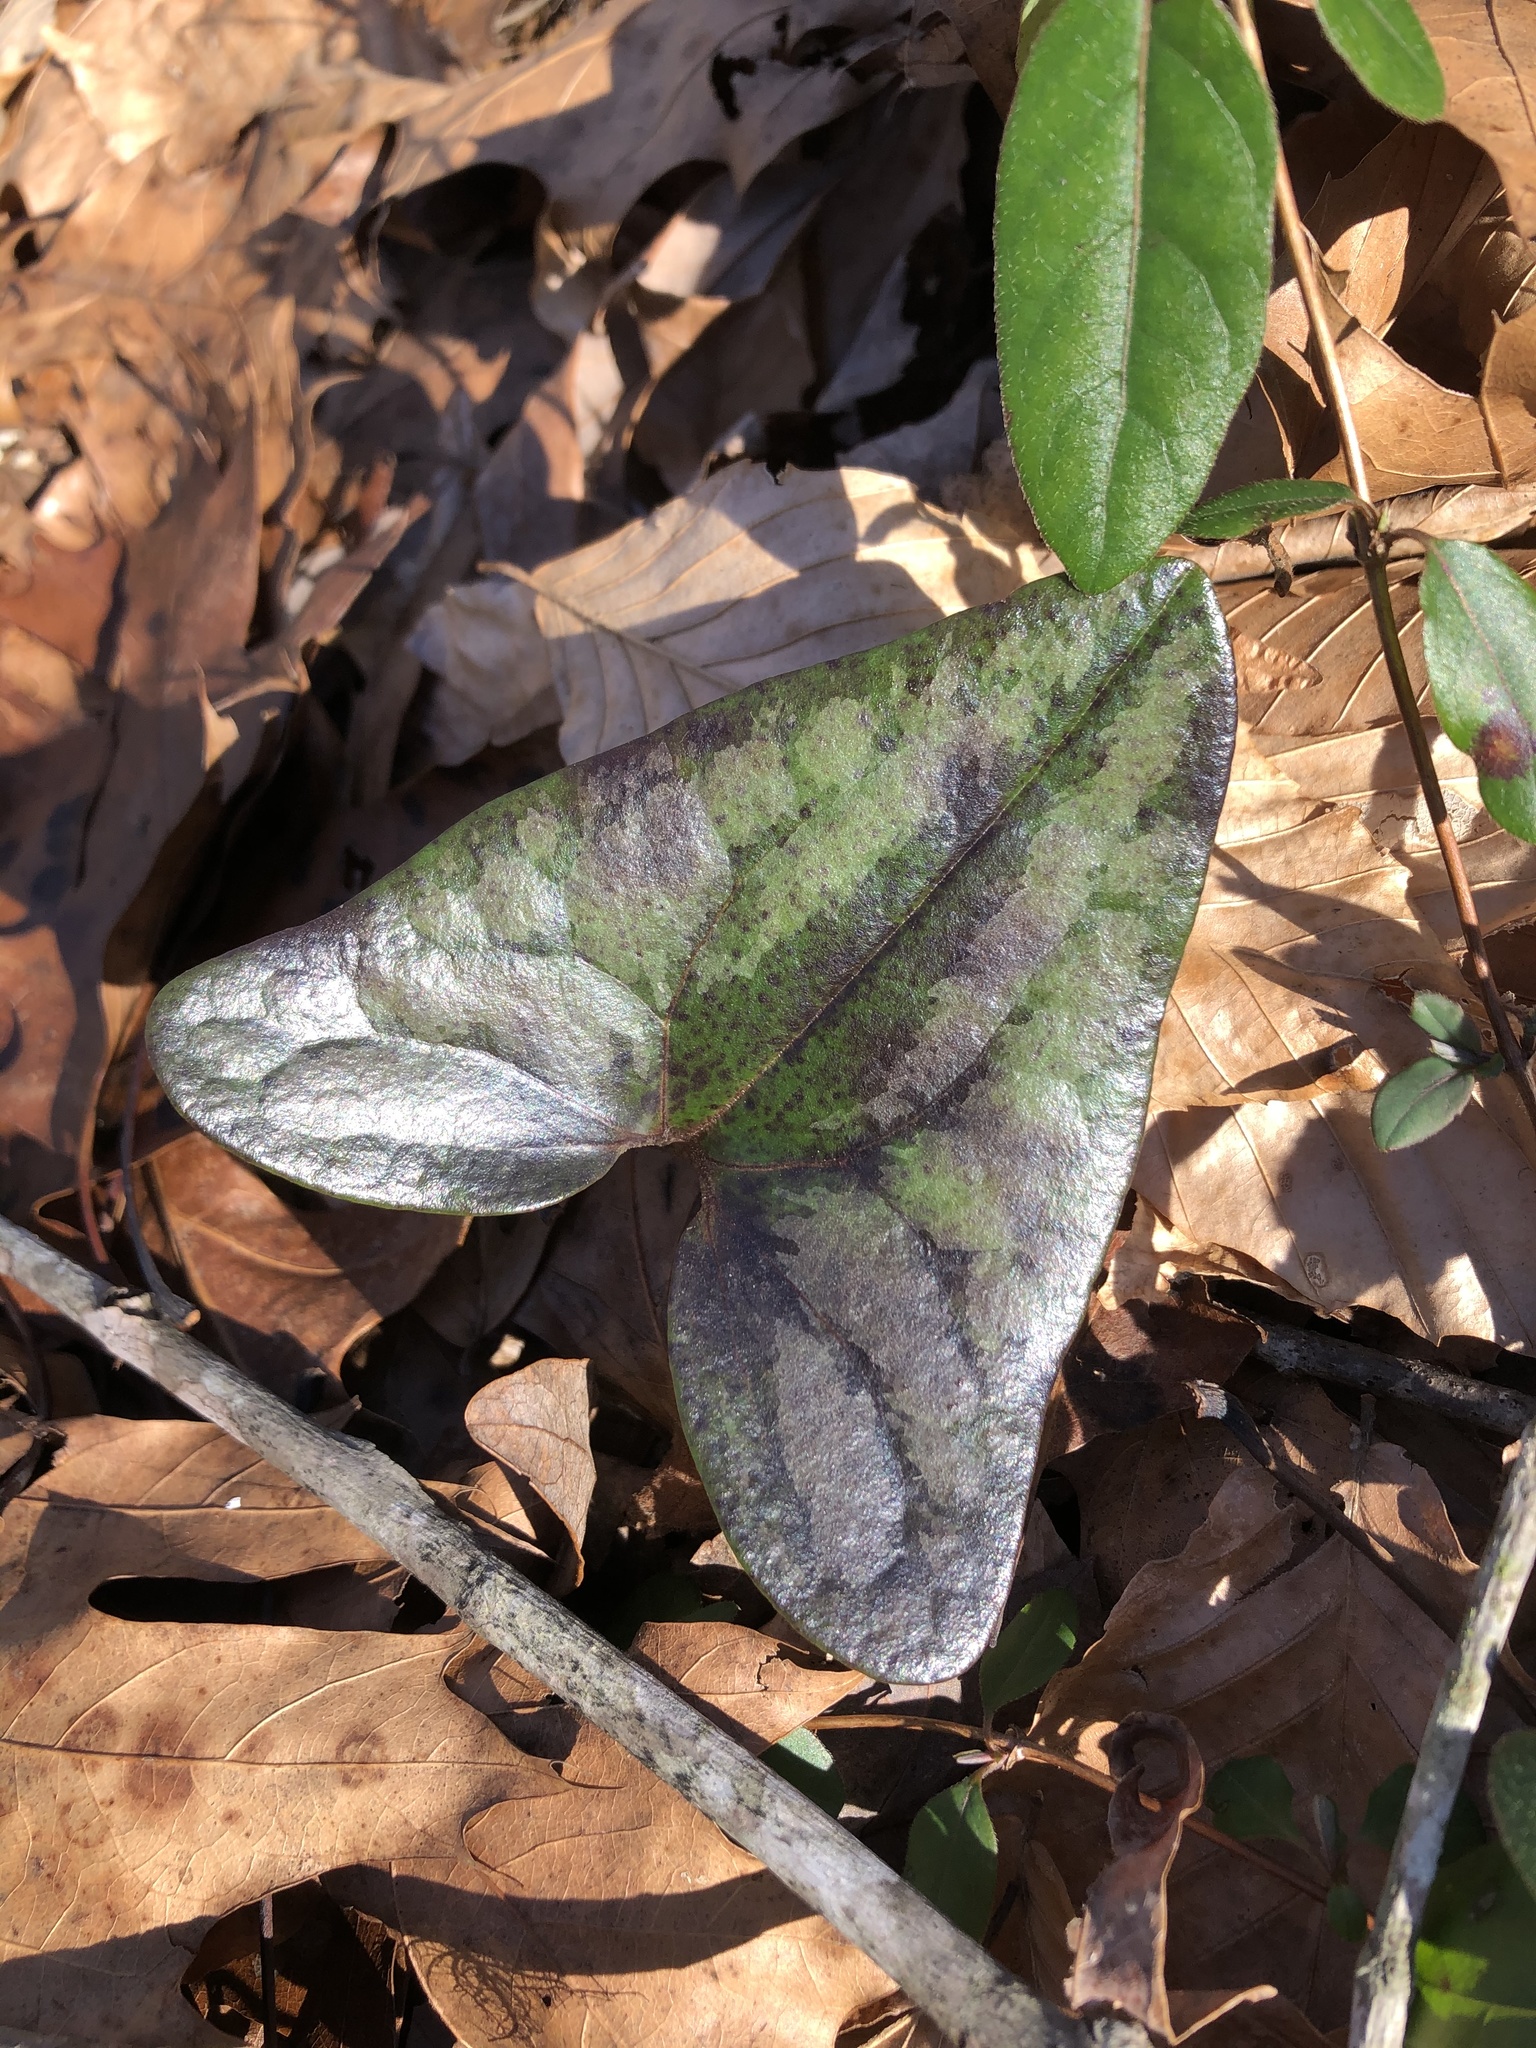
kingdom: Plantae
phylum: Tracheophyta
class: Magnoliopsida
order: Piperales
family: Aristolochiaceae
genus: Hexastylis
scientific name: Hexastylis arifolia
